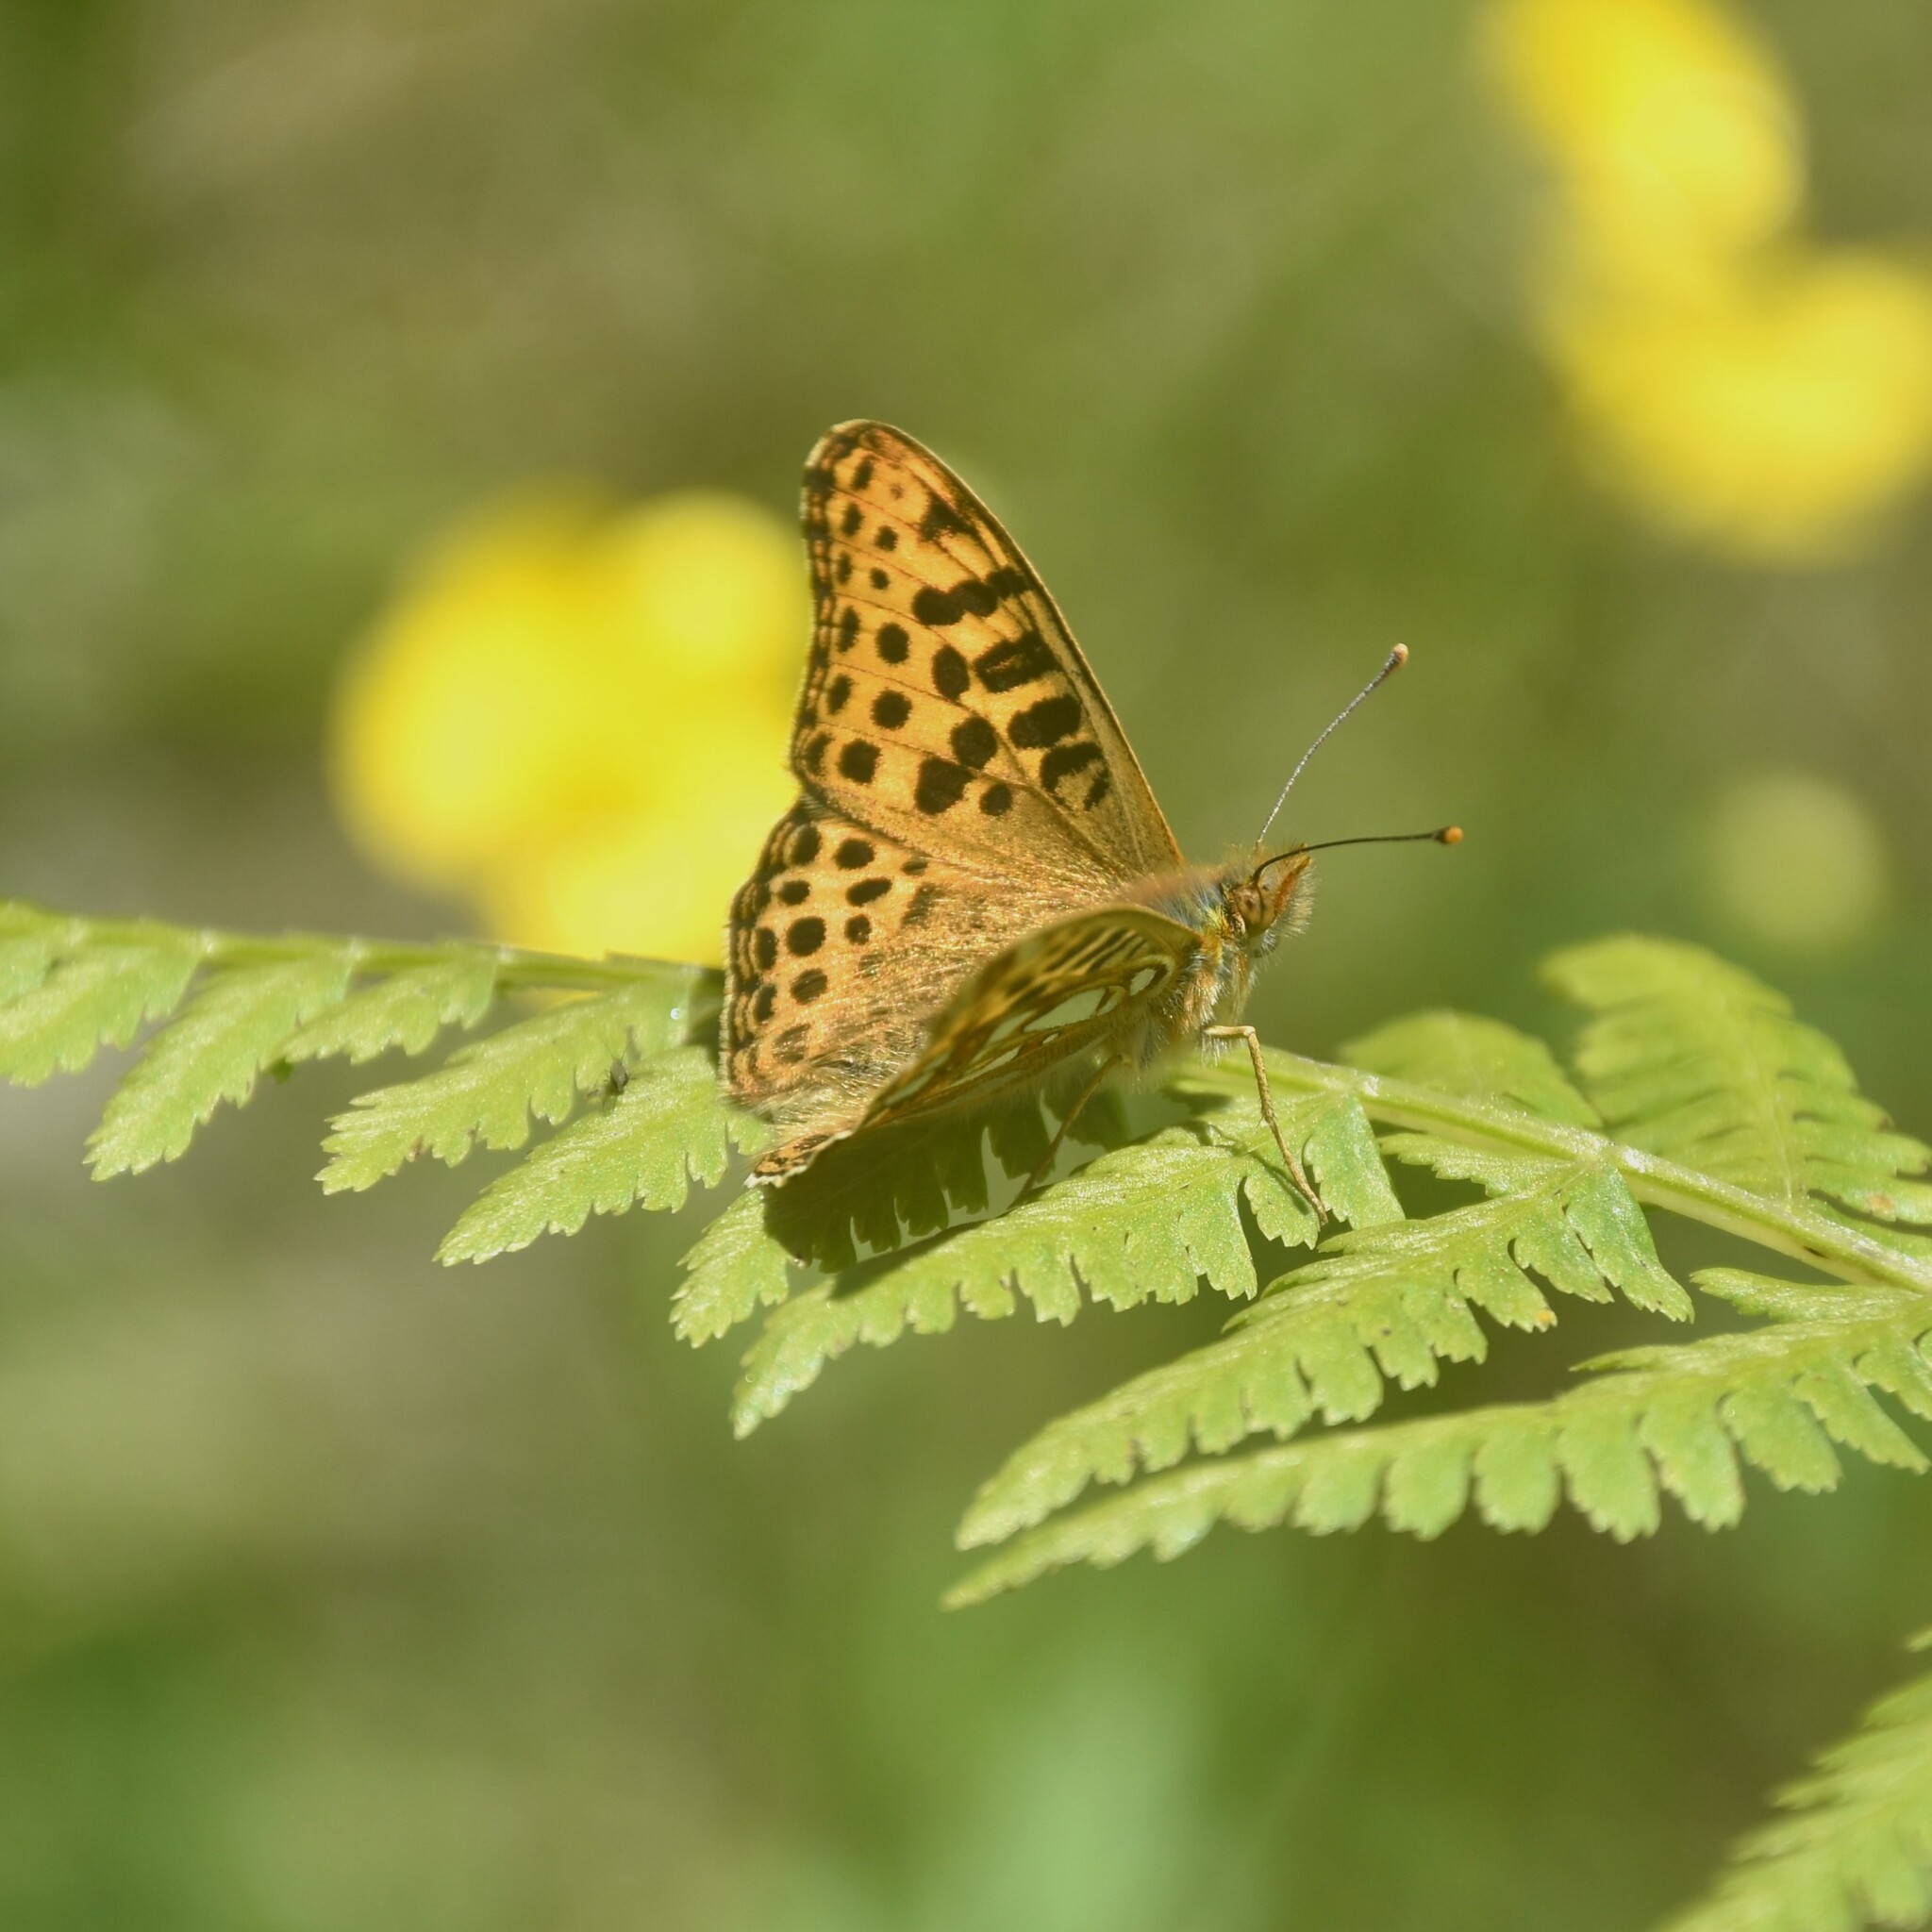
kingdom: Animalia
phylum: Arthropoda
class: Insecta
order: Lepidoptera
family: Nymphalidae
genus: Issoria
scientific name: Issoria
